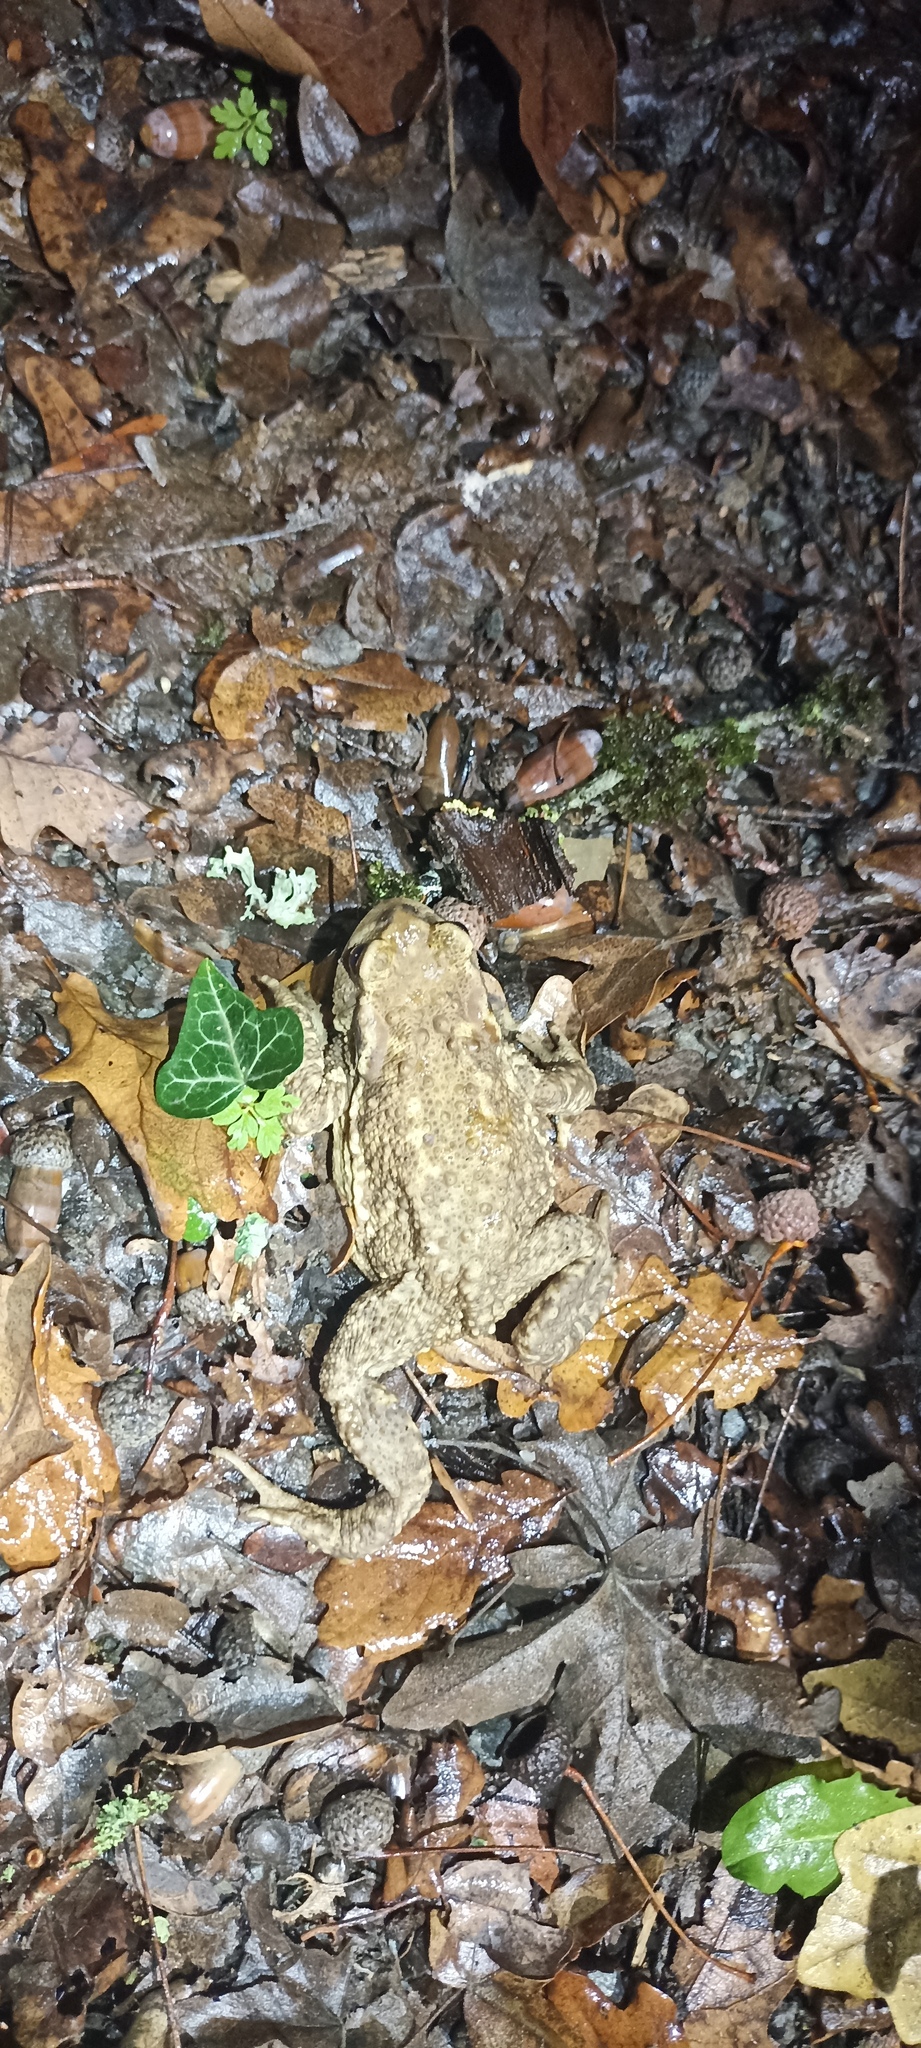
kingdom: Animalia
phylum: Chordata
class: Amphibia
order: Anura
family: Bufonidae
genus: Bufo
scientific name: Bufo spinosus
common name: Western common toad
